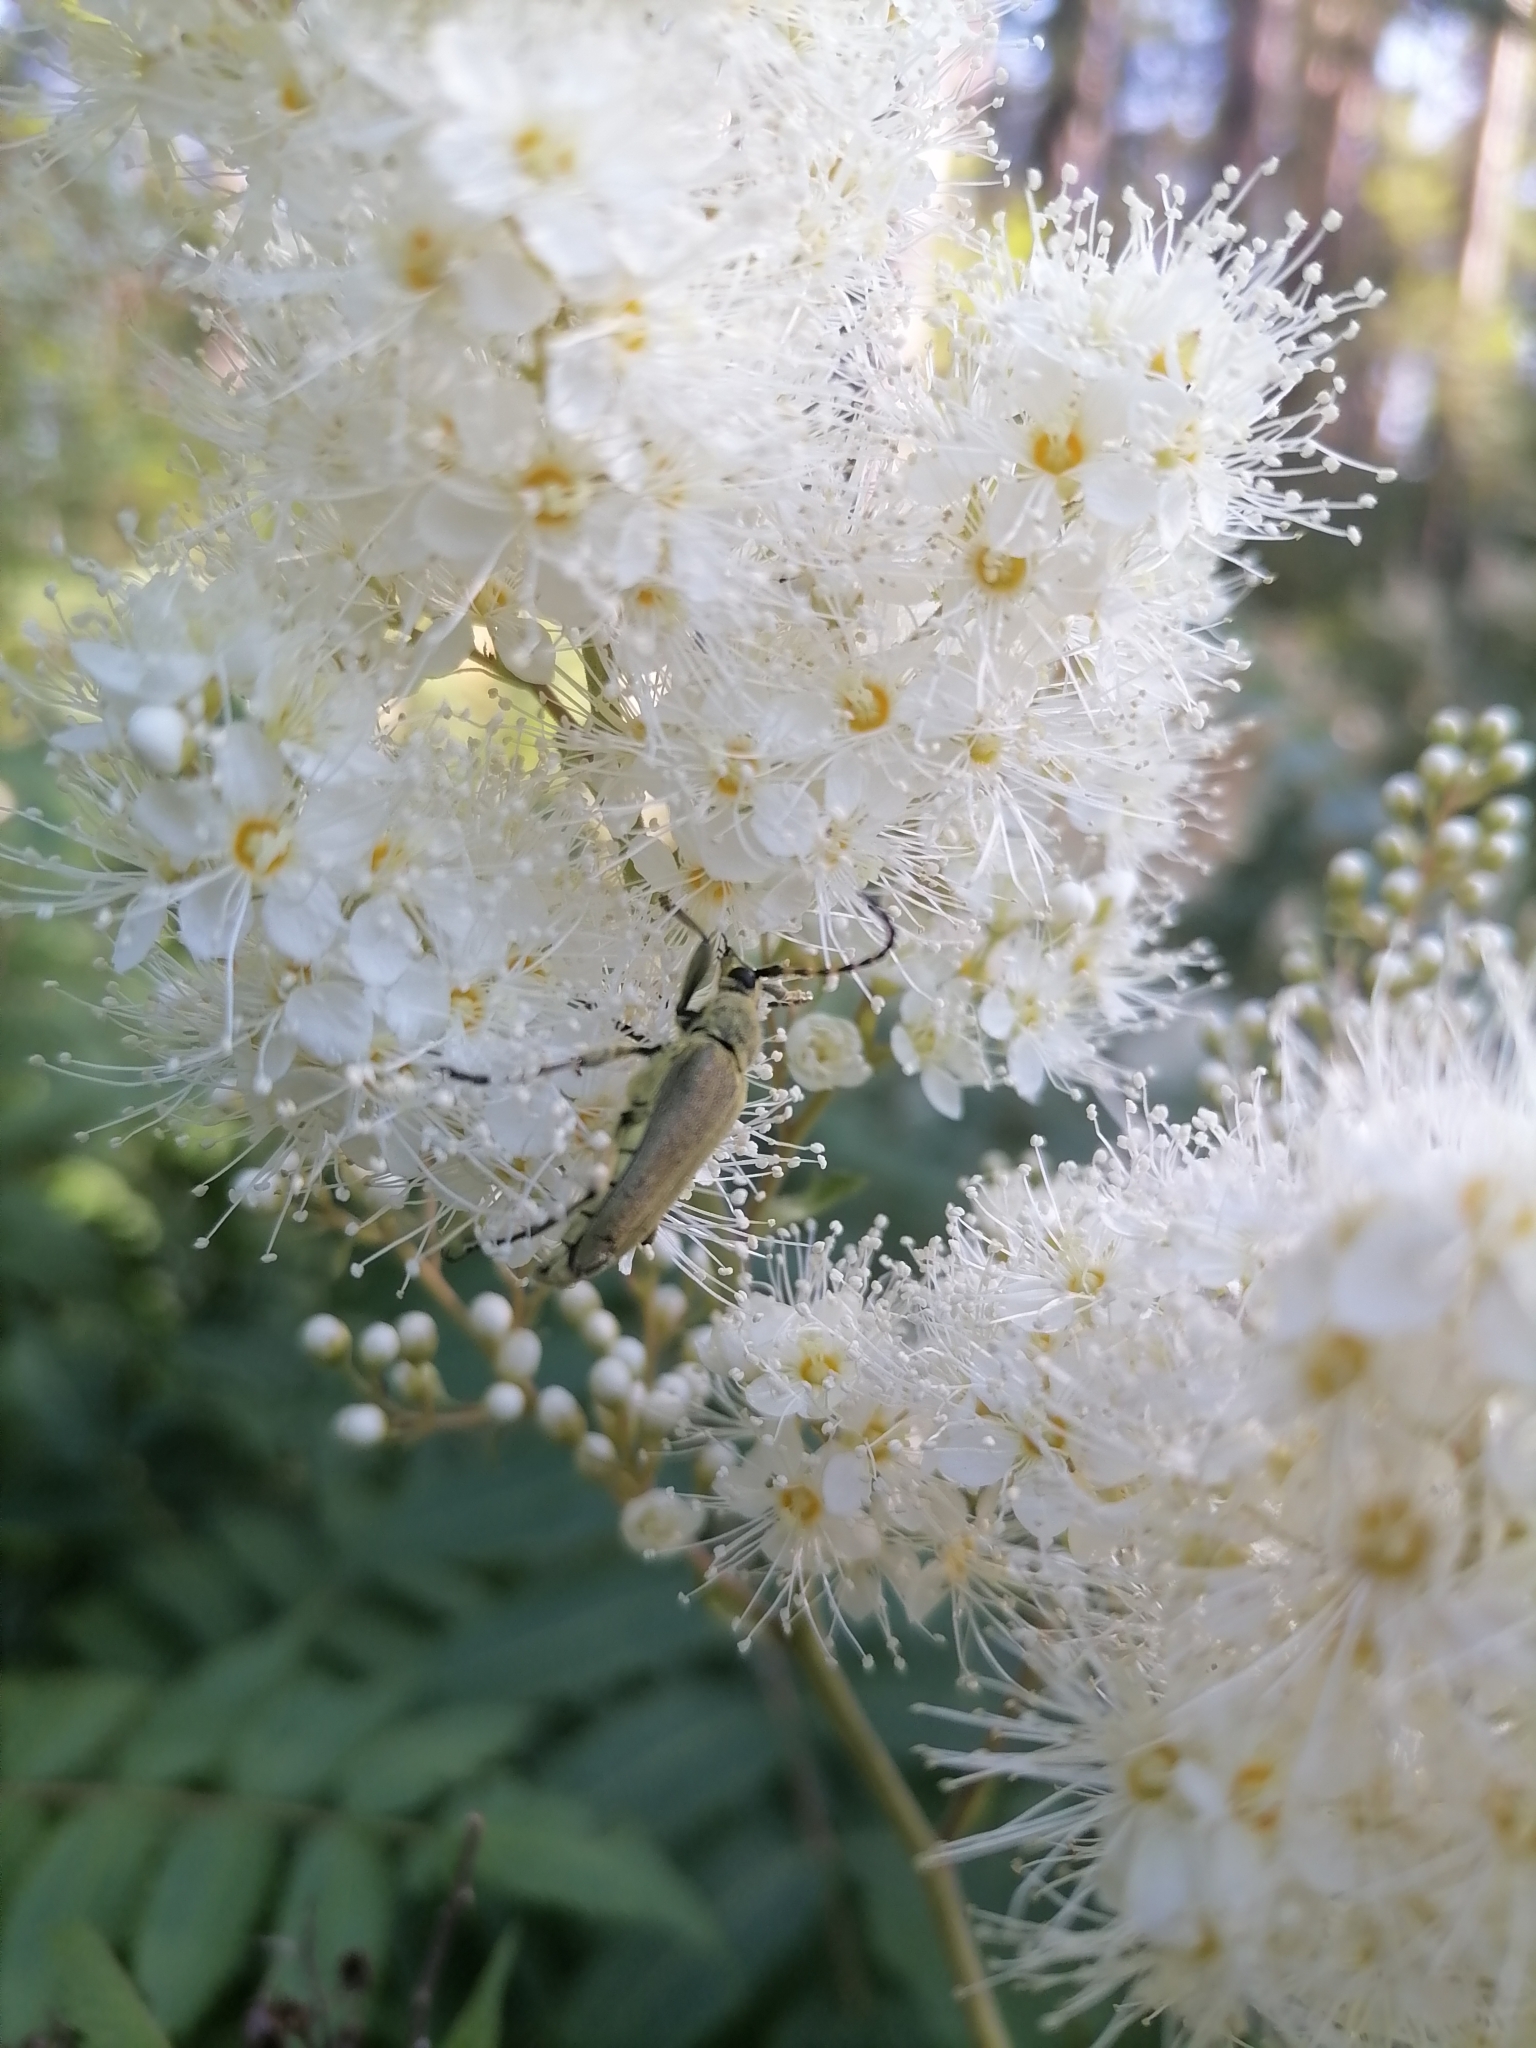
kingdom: Plantae
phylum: Tracheophyta
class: Magnoliopsida
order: Rosales
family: Rosaceae
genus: Sorbaria
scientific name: Sorbaria sorbifolia
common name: False spiraea
